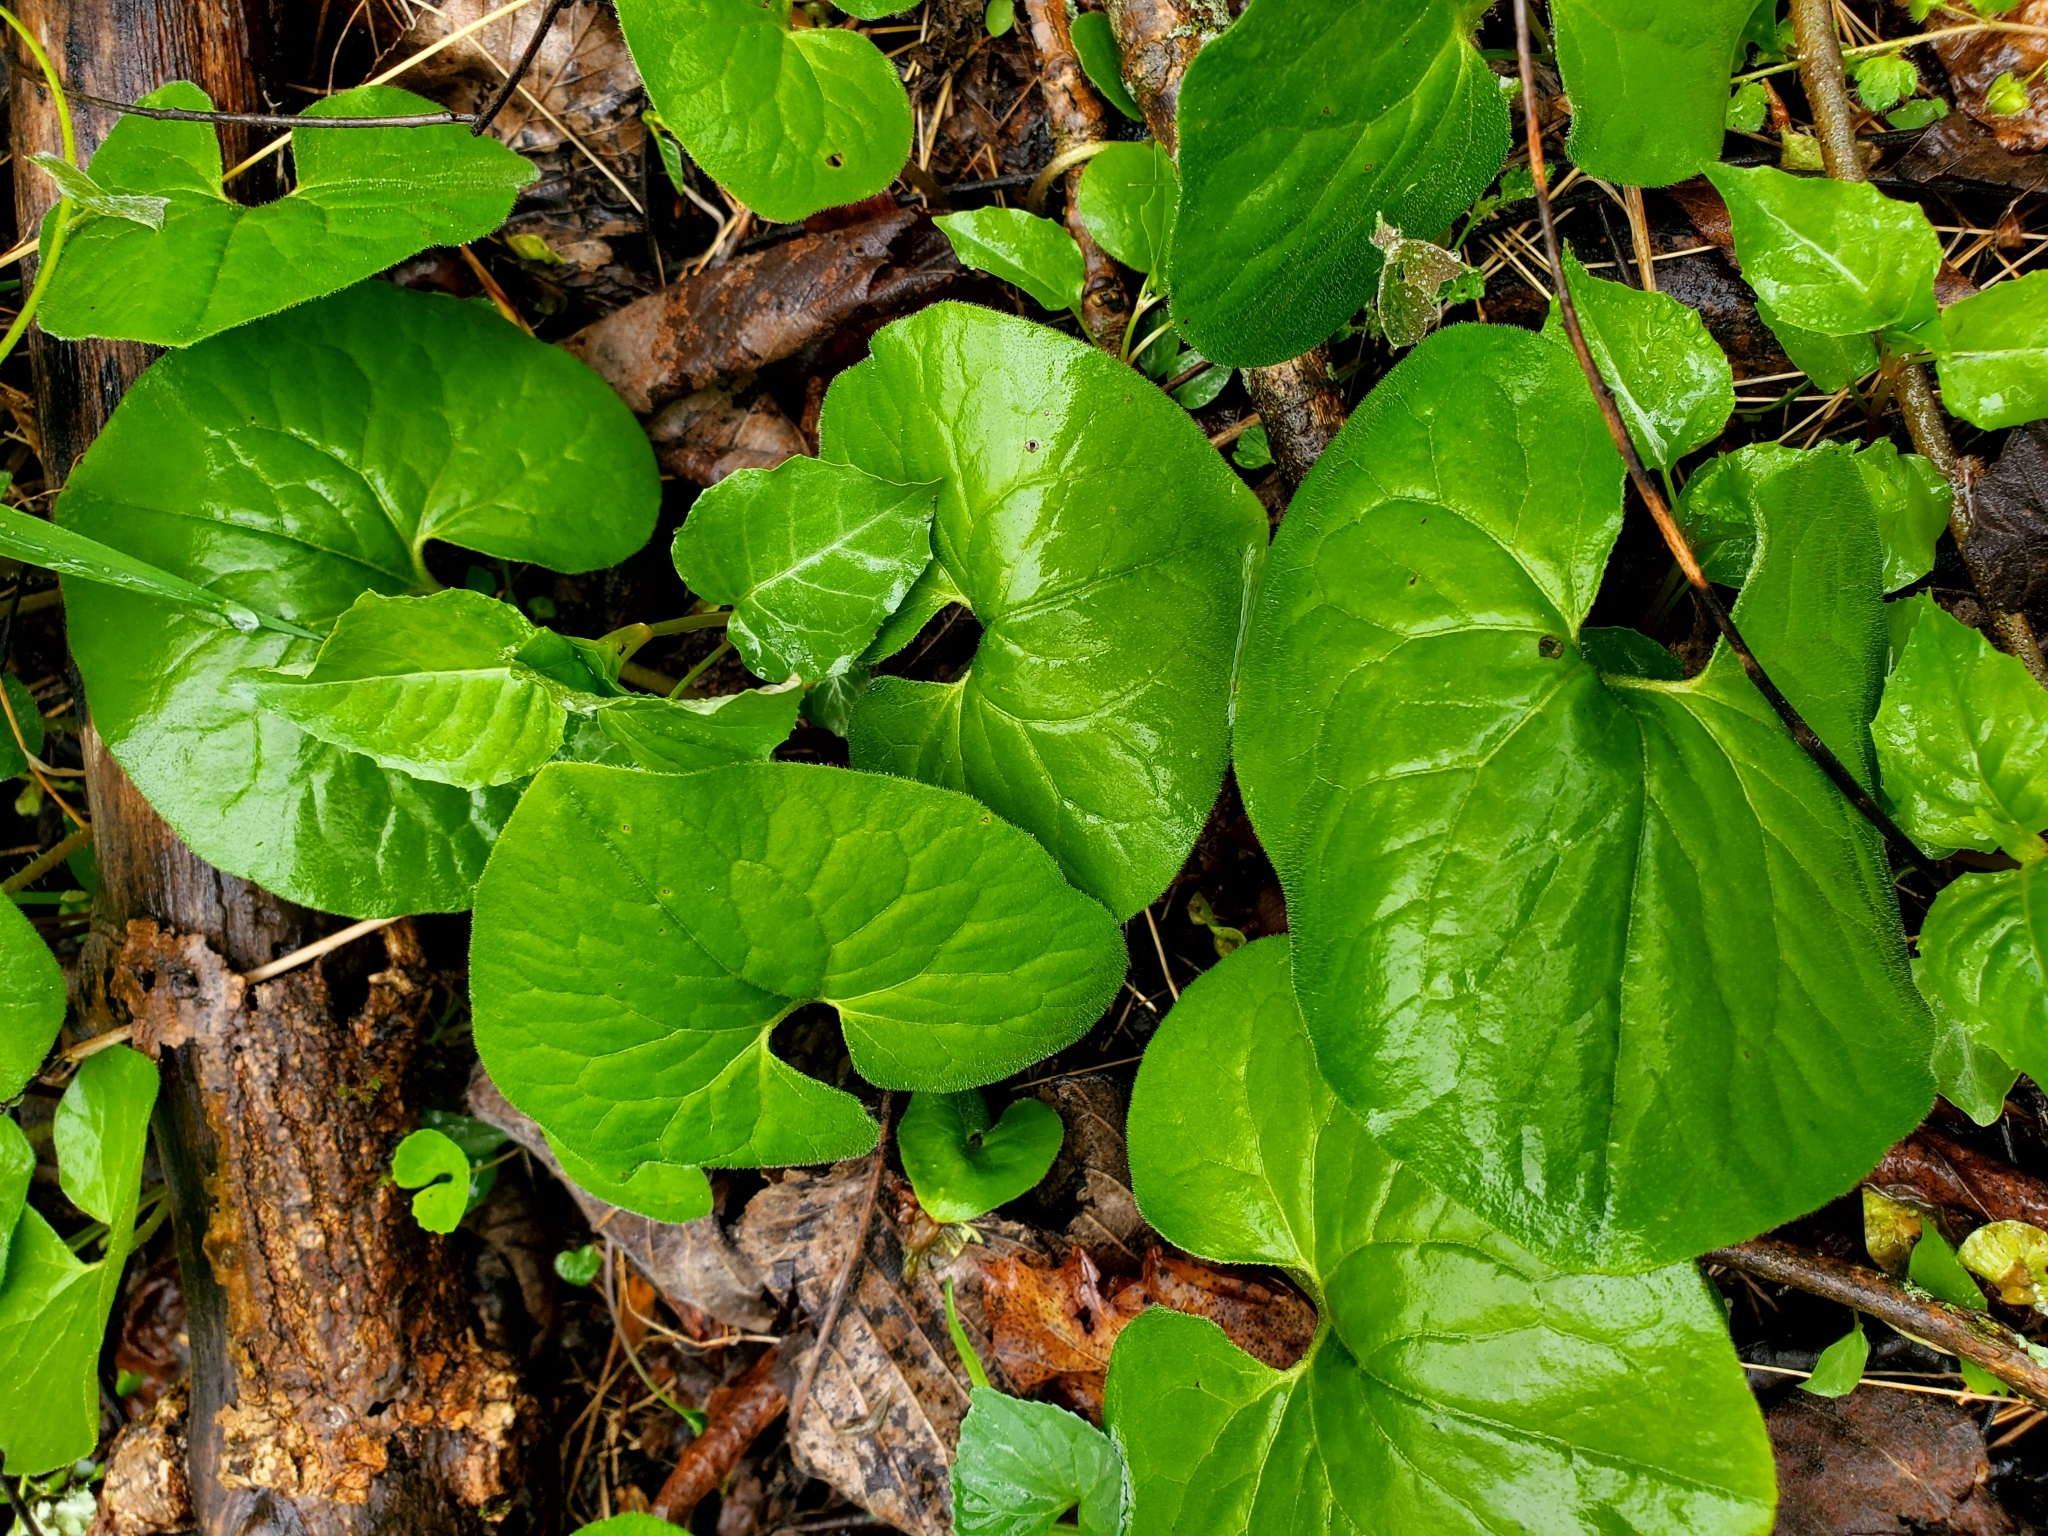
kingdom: Plantae
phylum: Tracheophyta
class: Magnoliopsida
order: Piperales
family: Aristolochiaceae
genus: Asarum
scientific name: Asarum canadense
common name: Wild ginger
